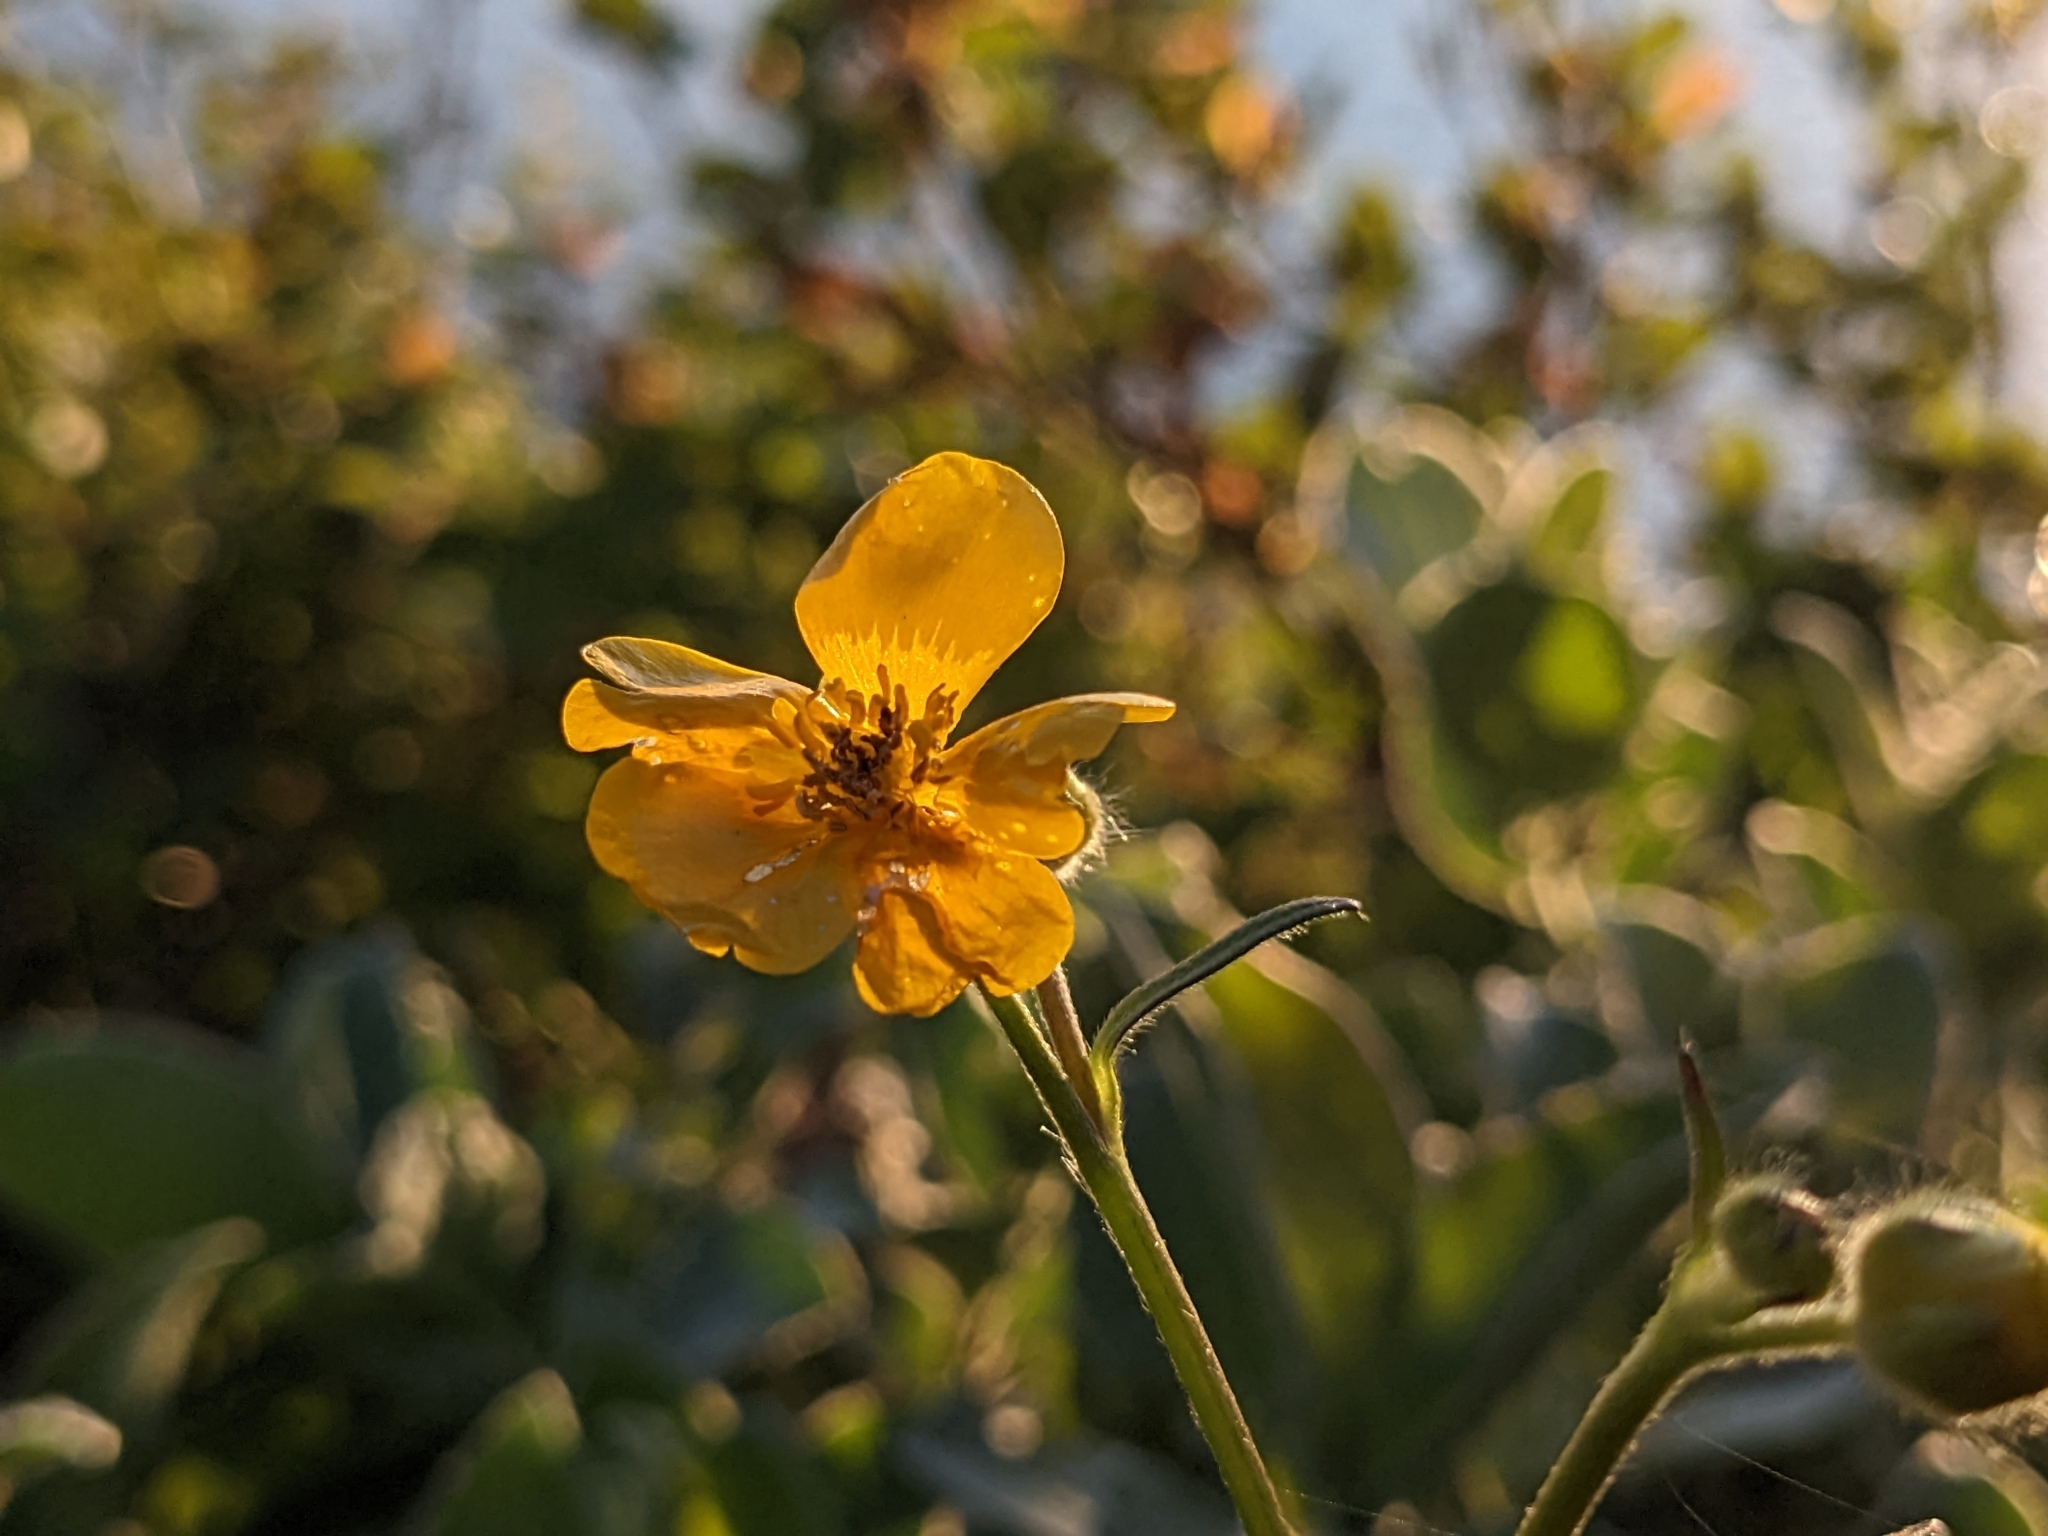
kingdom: Plantae
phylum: Tracheophyta
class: Magnoliopsida
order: Ranunculales
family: Ranunculaceae
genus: Ranunculus
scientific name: Ranunculus acris
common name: Meadow buttercup
